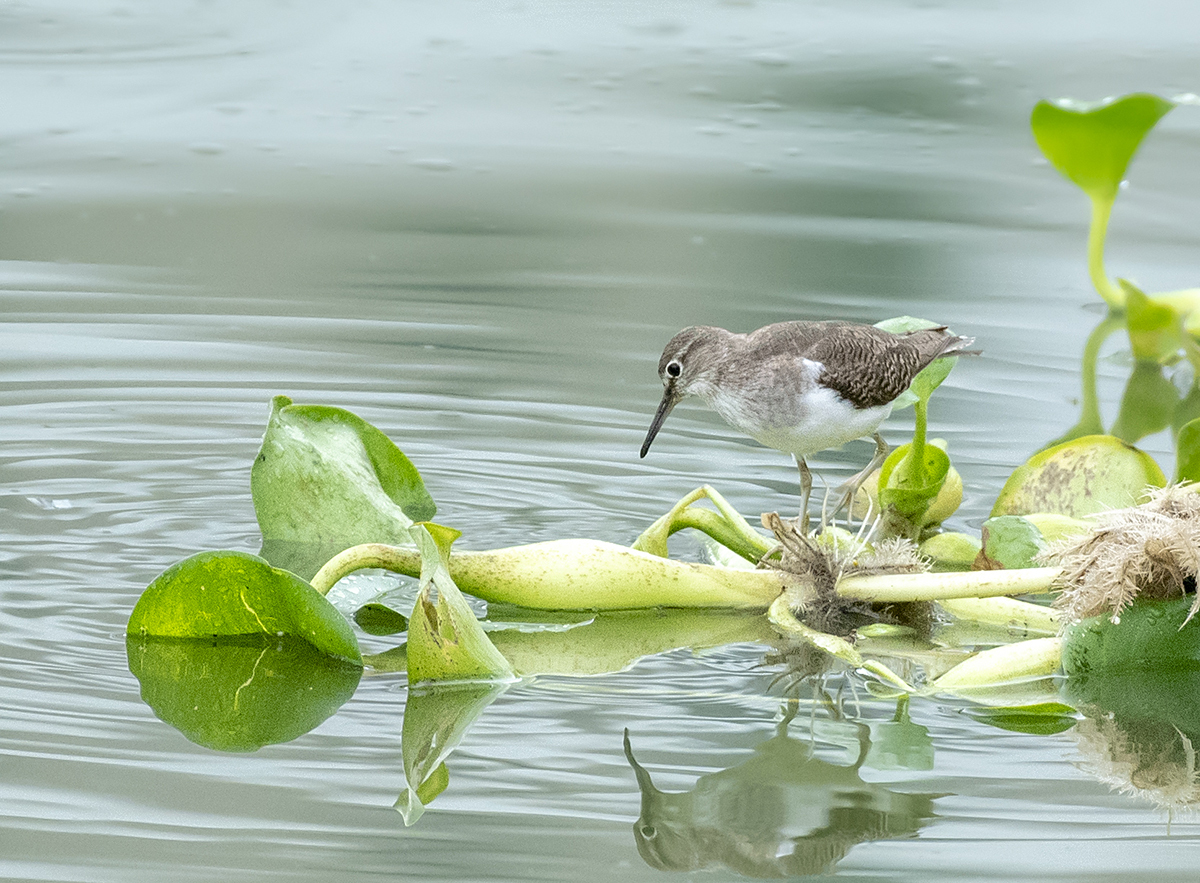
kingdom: Animalia
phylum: Chordata
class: Aves
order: Charadriiformes
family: Scolopacidae
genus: Actitis
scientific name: Actitis hypoleucos
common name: Common sandpiper
